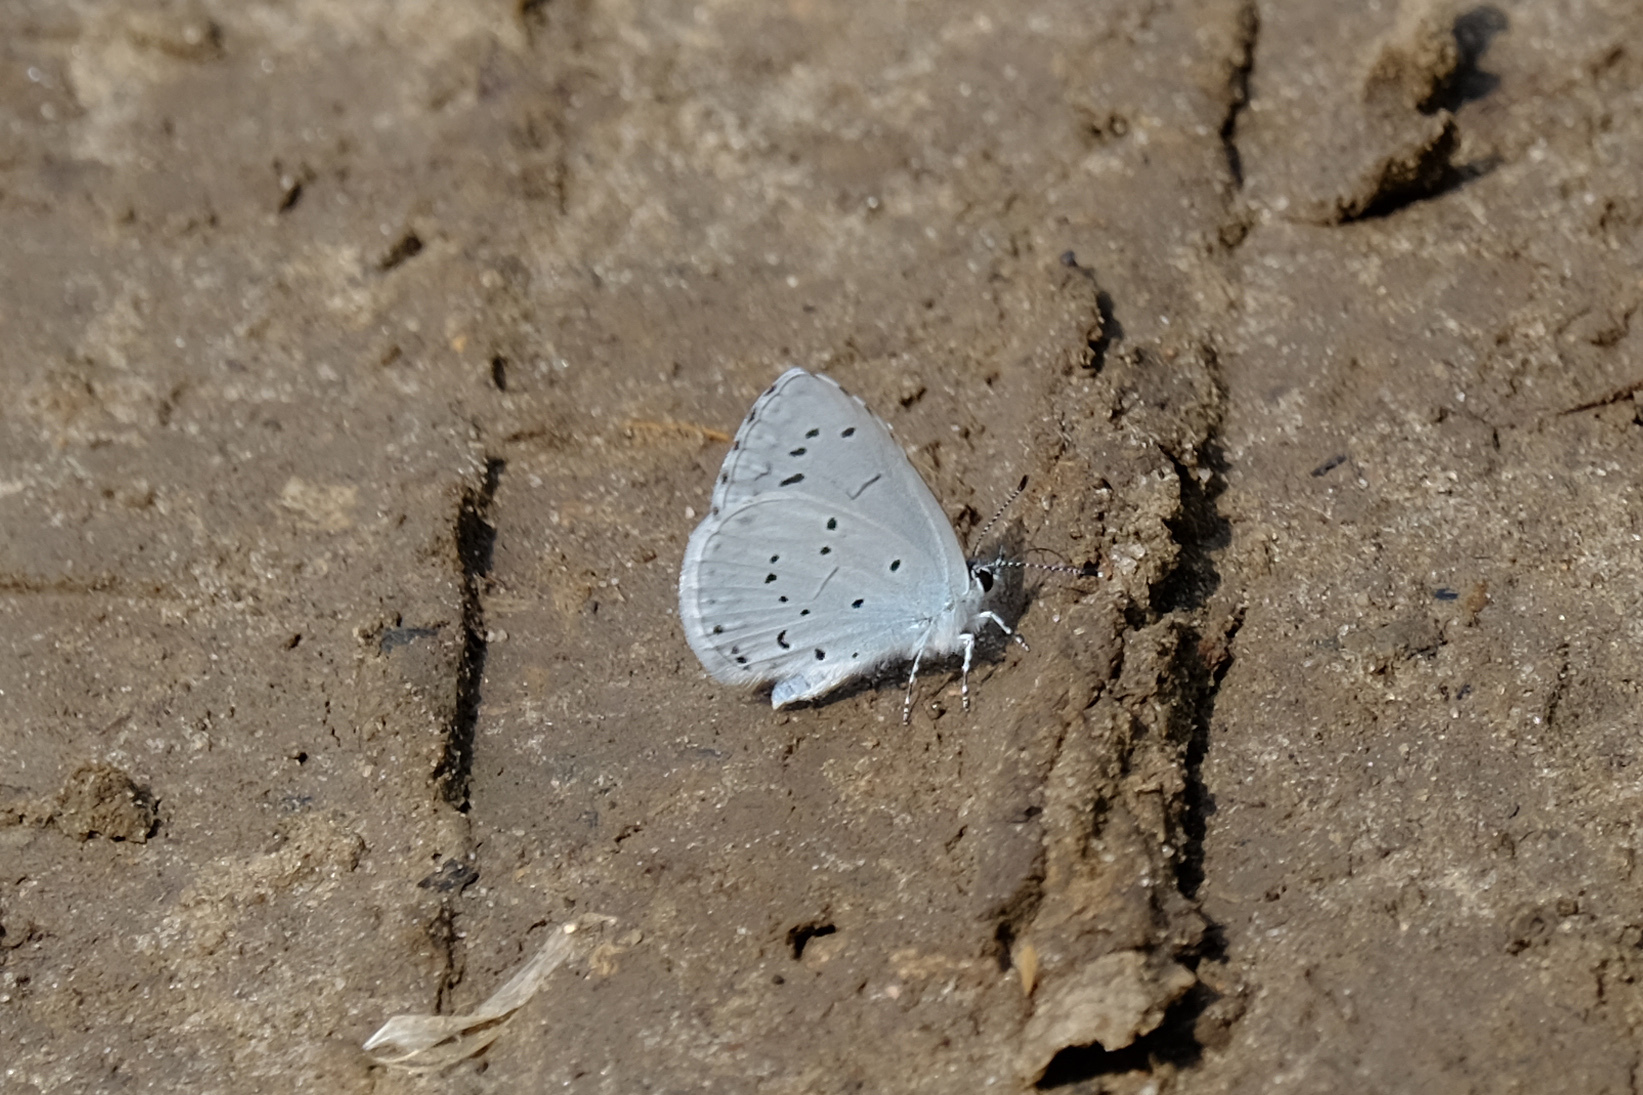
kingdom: Animalia
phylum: Arthropoda
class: Insecta
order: Lepidoptera
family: Lycaenidae
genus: Celastrina
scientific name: Celastrina argiolus
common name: Holly blue
